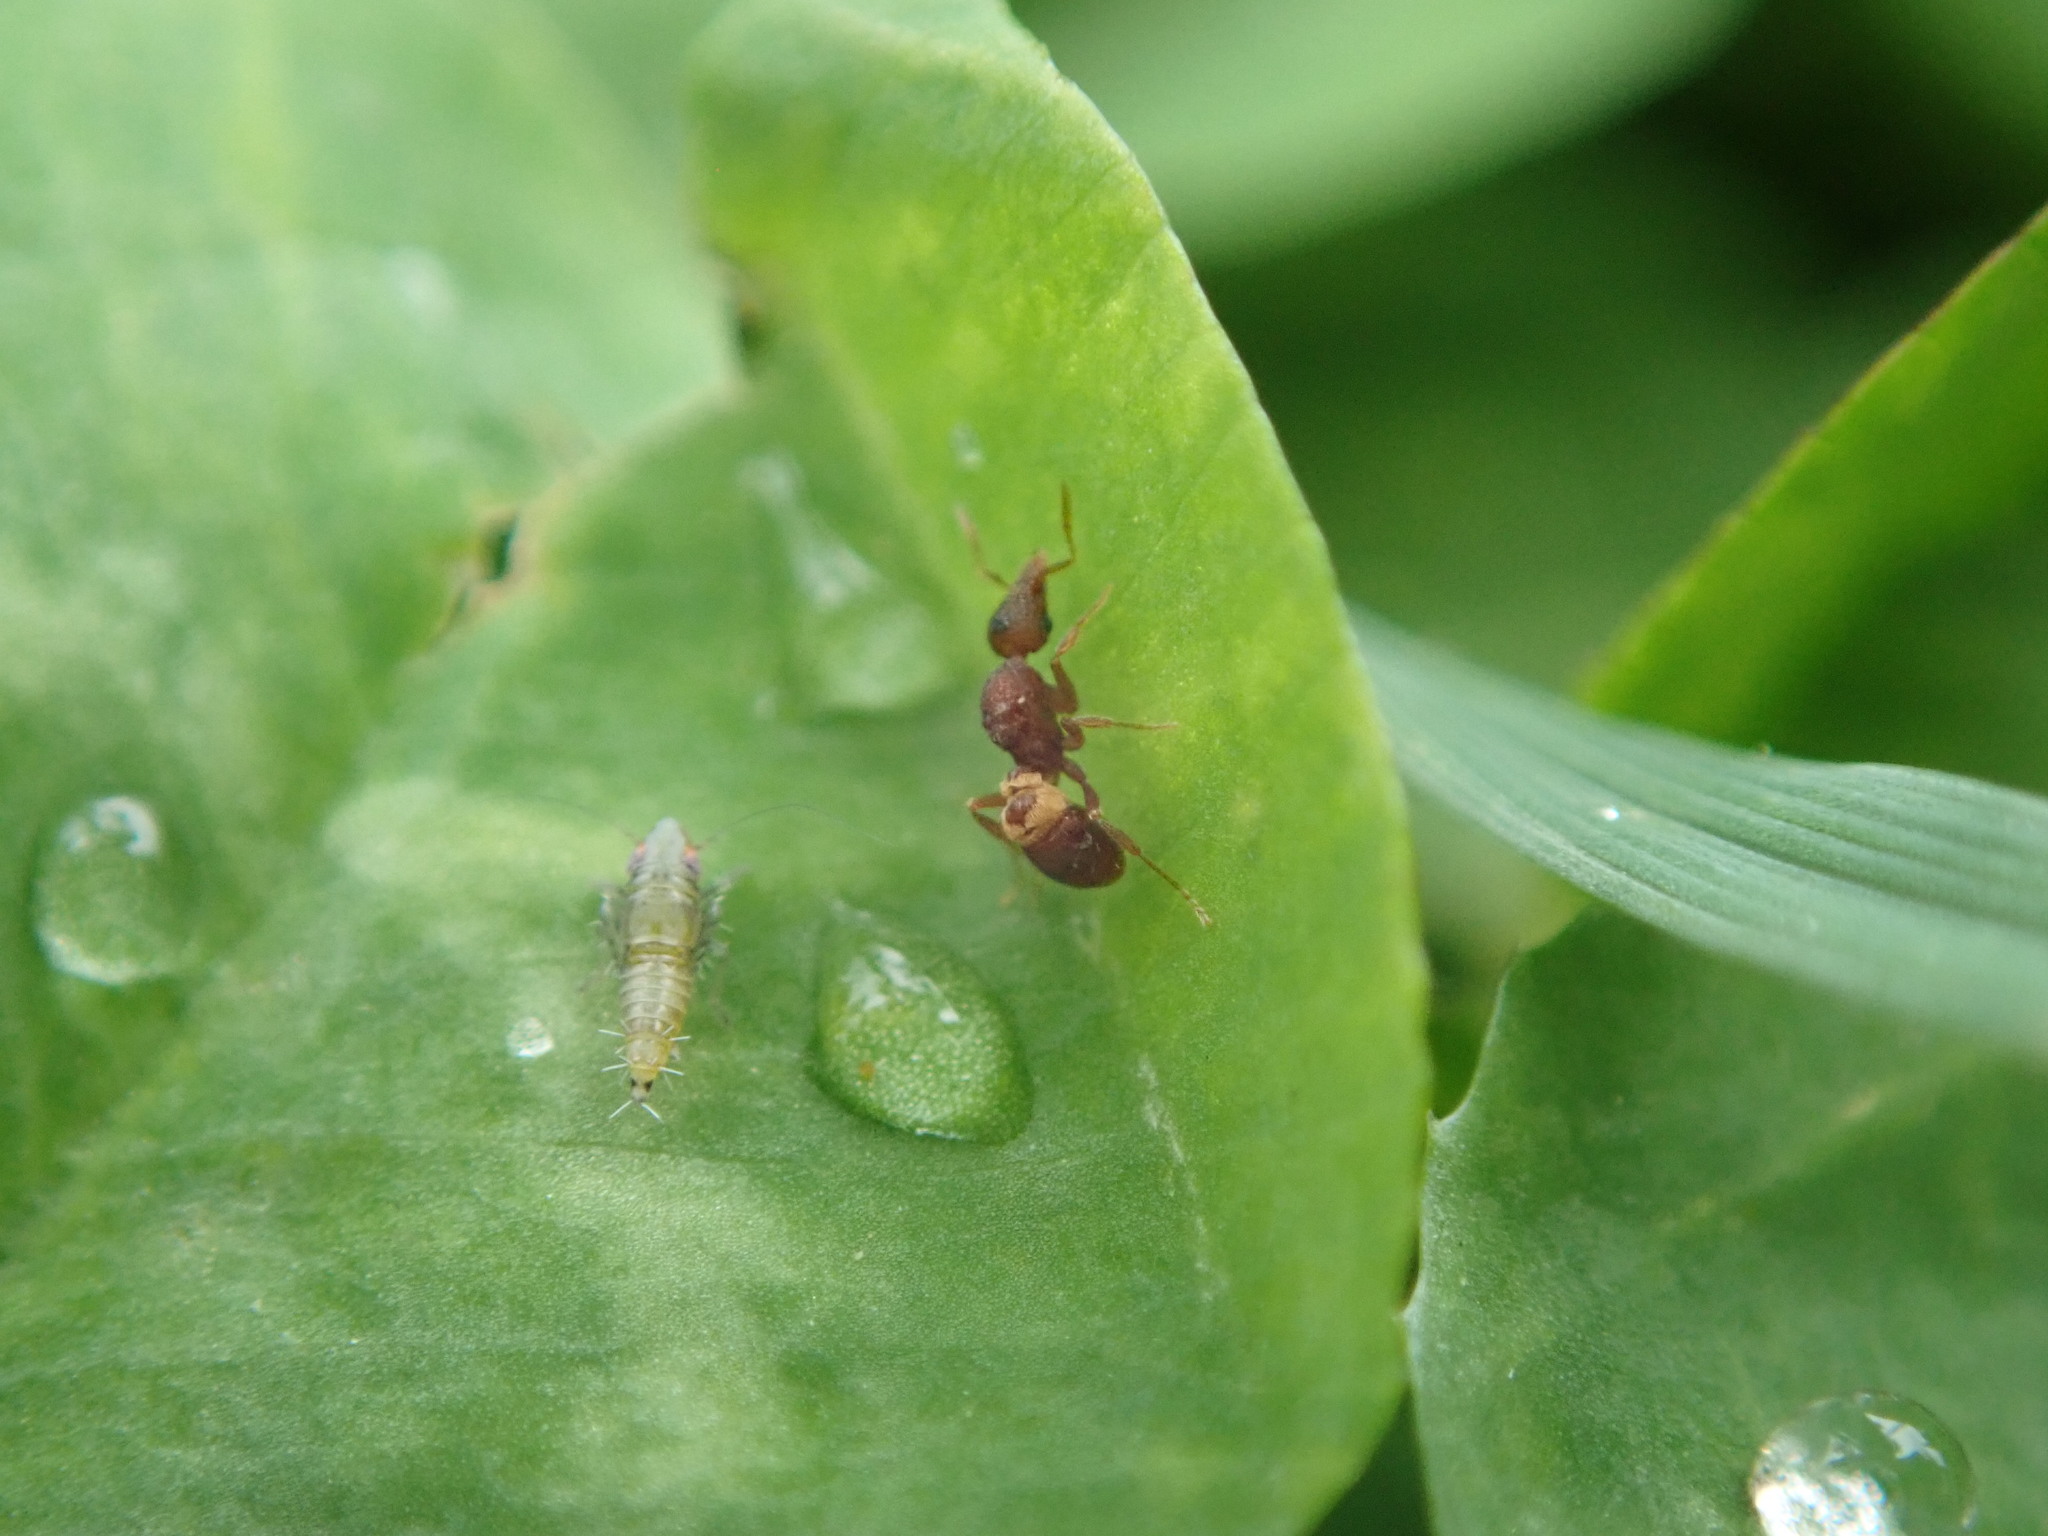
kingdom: Animalia
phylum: Arthropoda
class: Insecta
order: Hymenoptera
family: Formicidae
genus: Strumigenys
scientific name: Strumigenys
